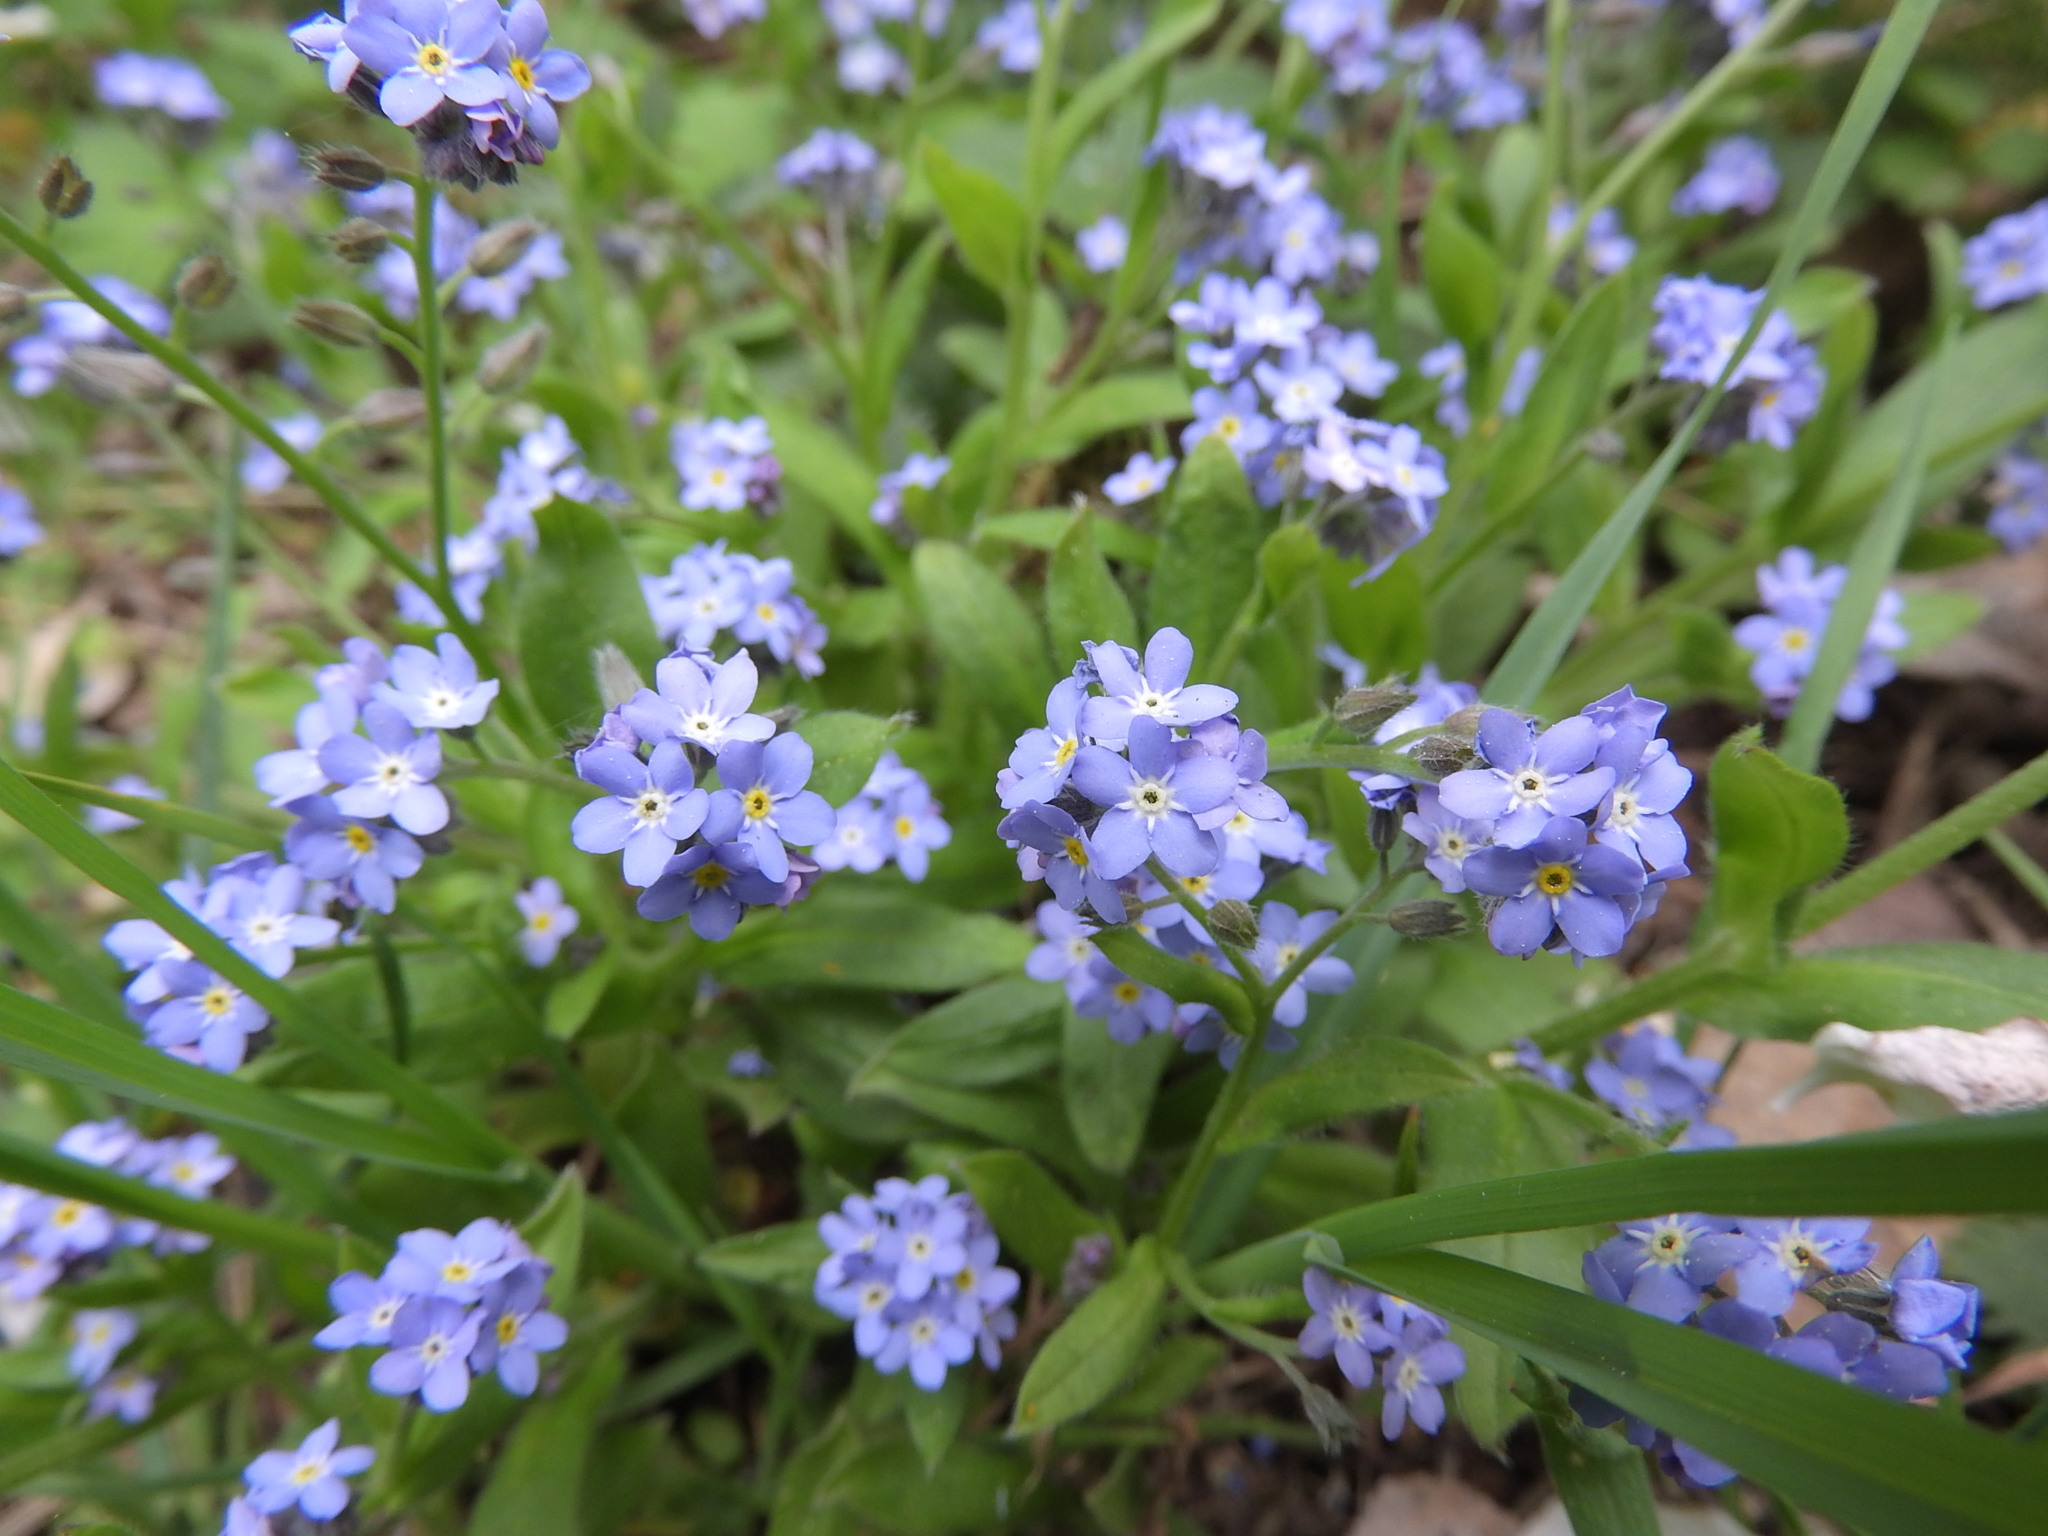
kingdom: Plantae
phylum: Tracheophyta
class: Magnoliopsida
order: Boraginales
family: Boraginaceae
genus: Myosotis
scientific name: Myosotis sylvatica
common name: Wood forget-me-not
